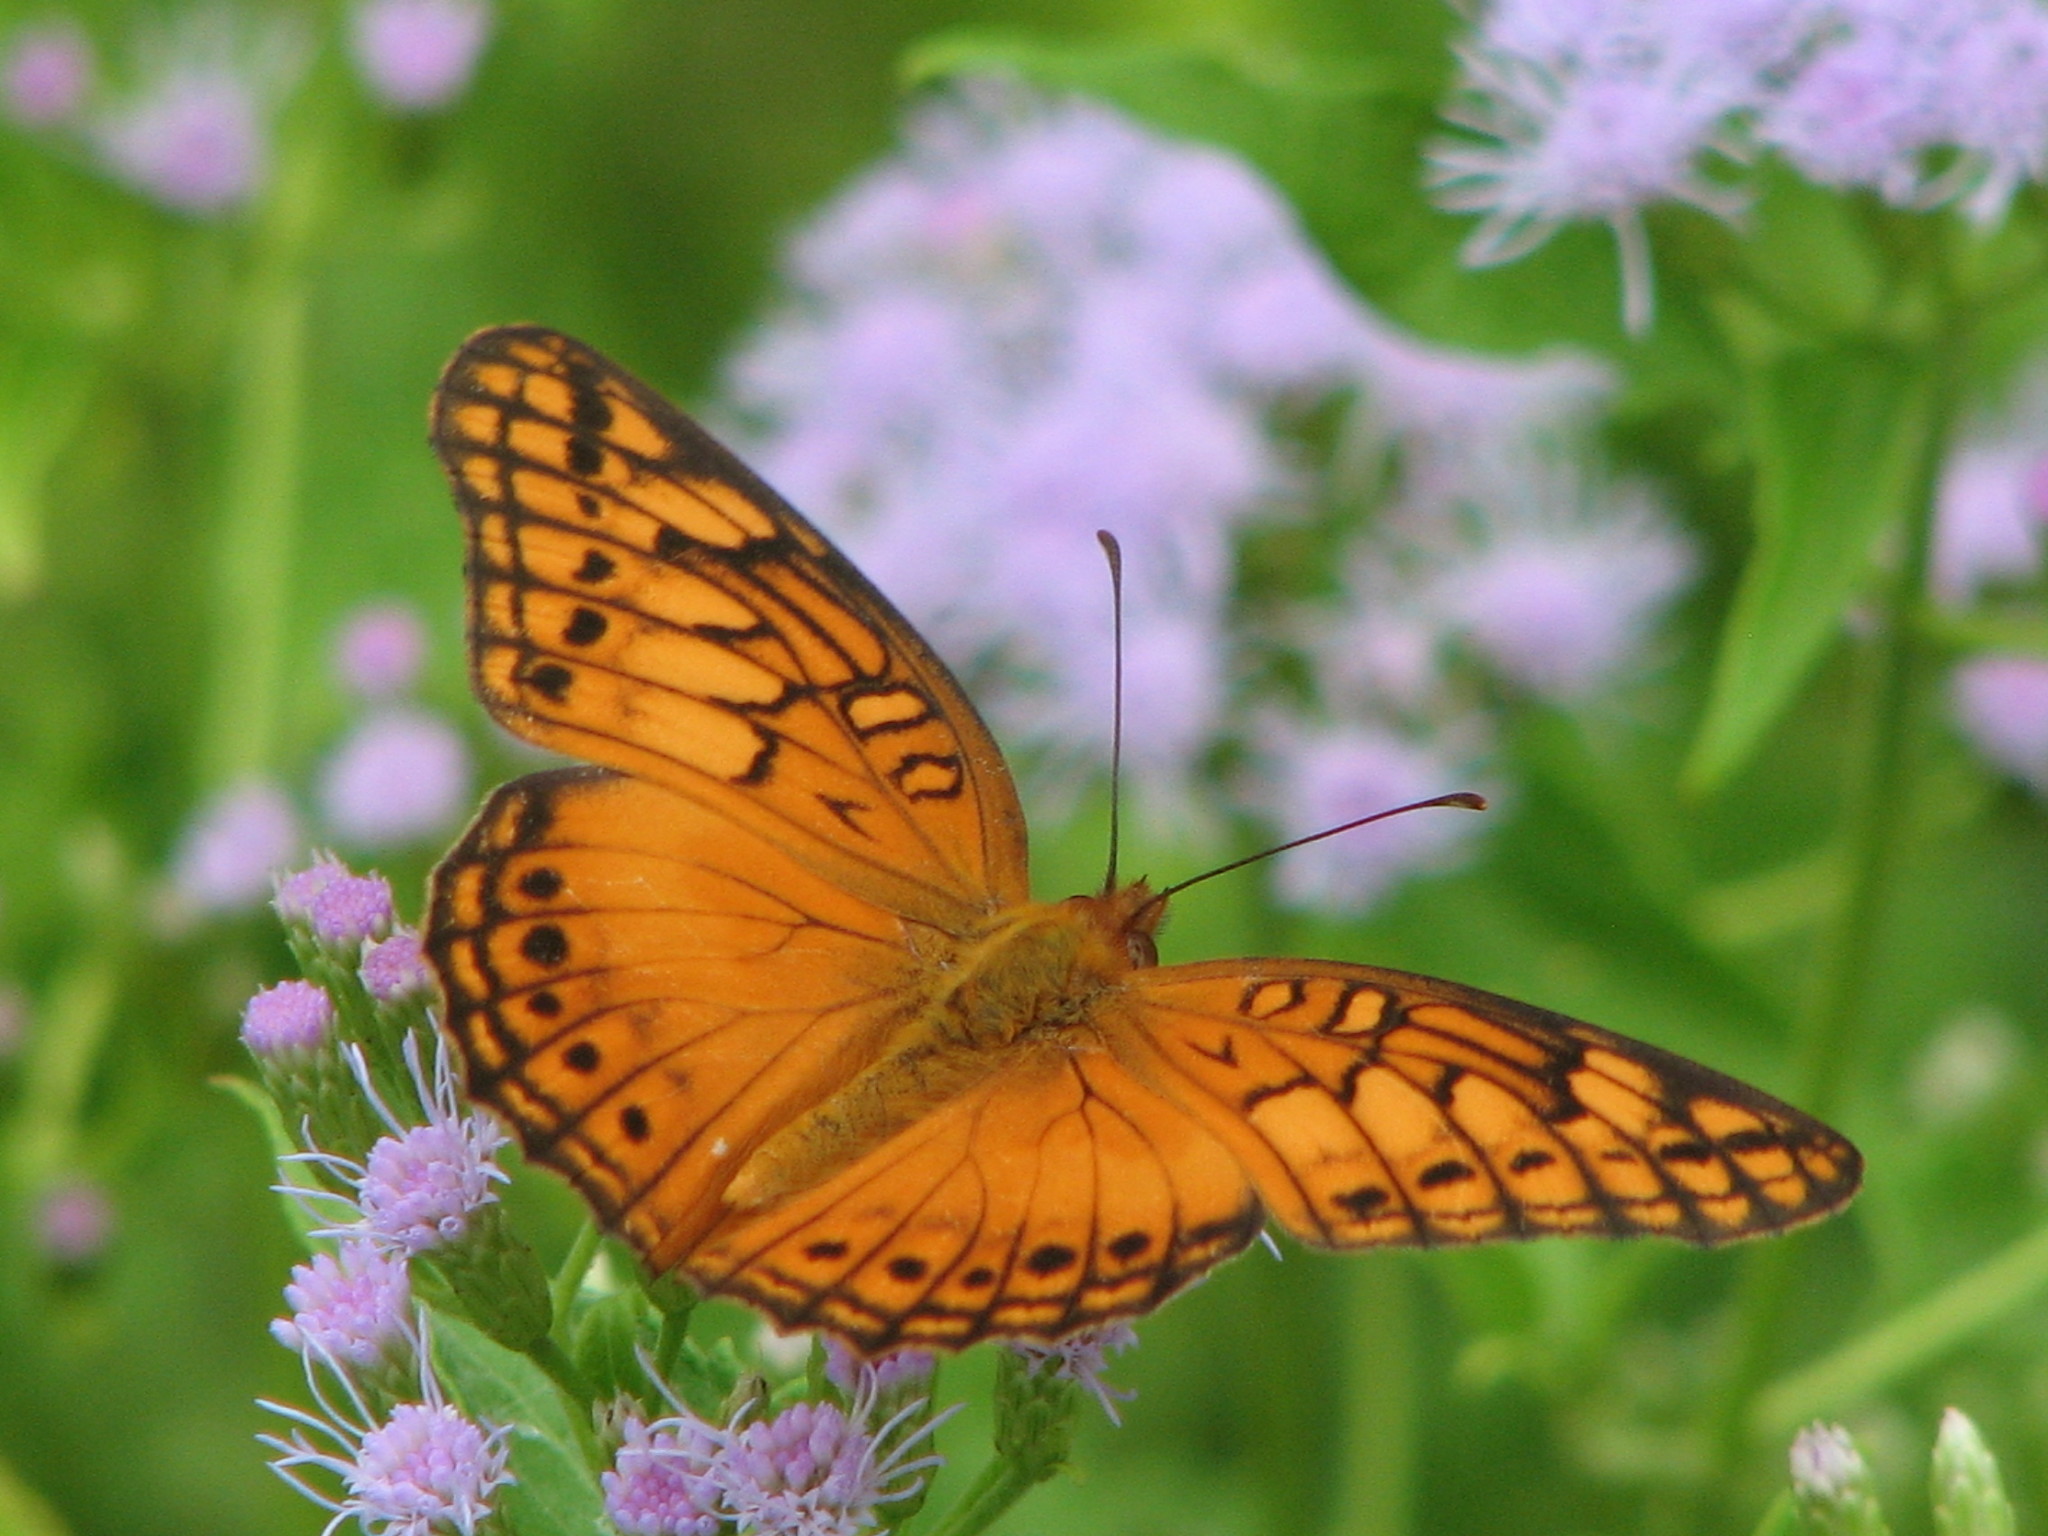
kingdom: Animalia
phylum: Arthropoda
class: Insecta
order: Lepidoptera
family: Nymphalidae
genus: Euptoieta
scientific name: Euptoieta hegesia
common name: Mexican fritillary
